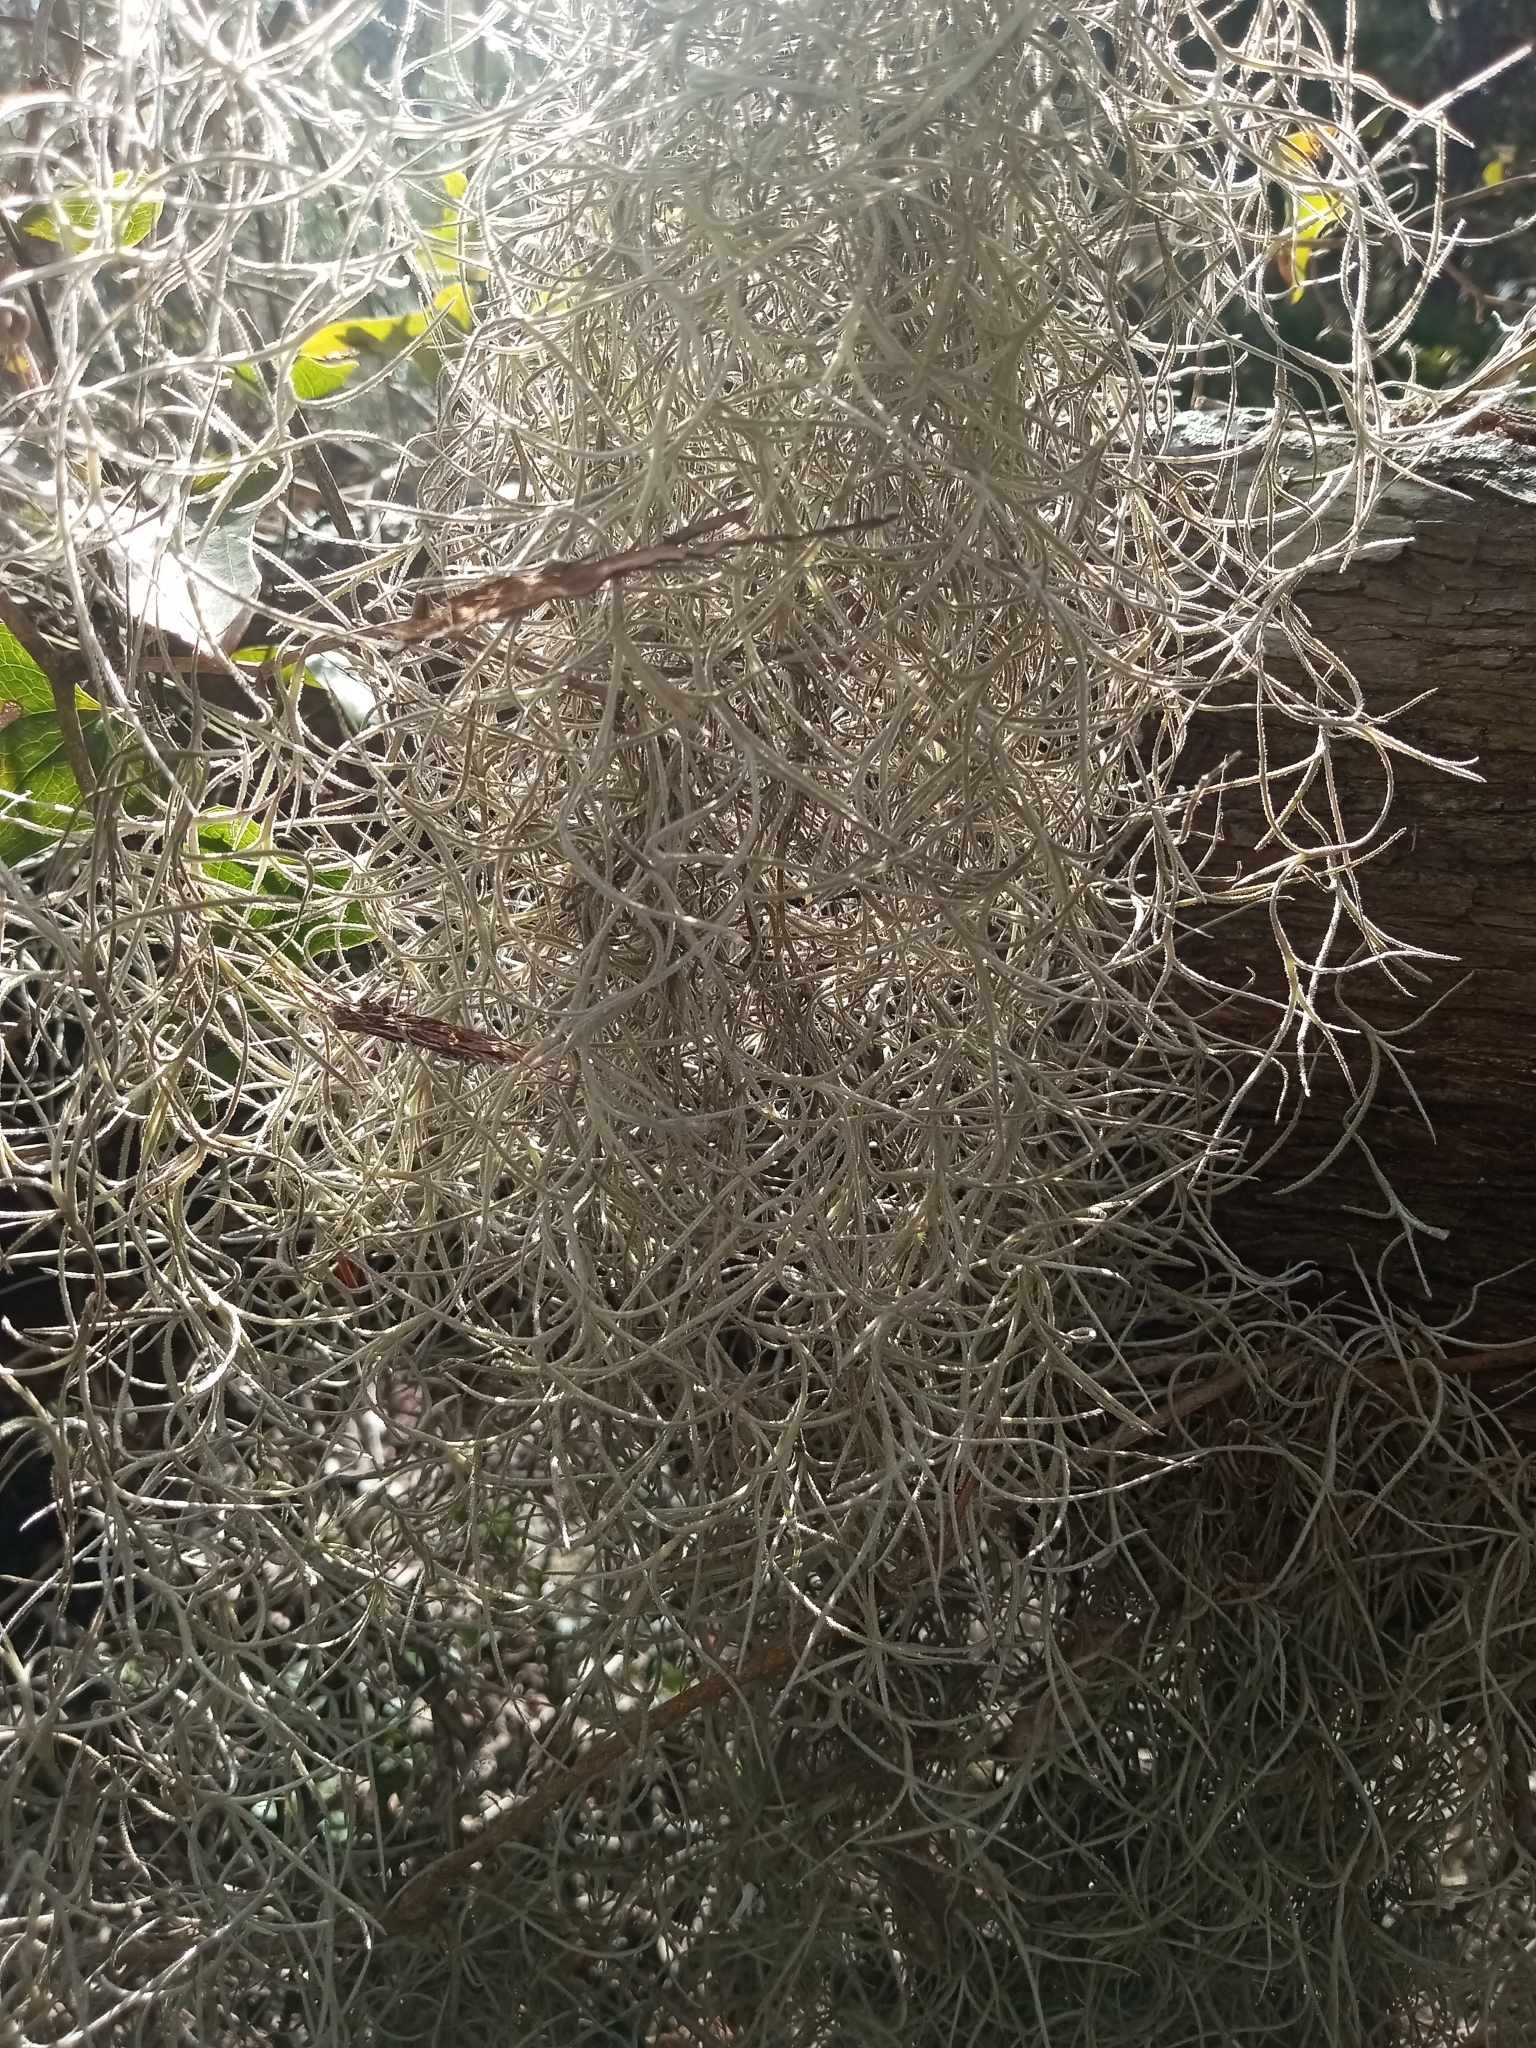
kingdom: Plantae
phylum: Tracheophyta
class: Liliopsida
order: Poales
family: Bromeliaceae
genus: Tillandsia
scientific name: Tillandsia usneoides
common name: Spanish moss
